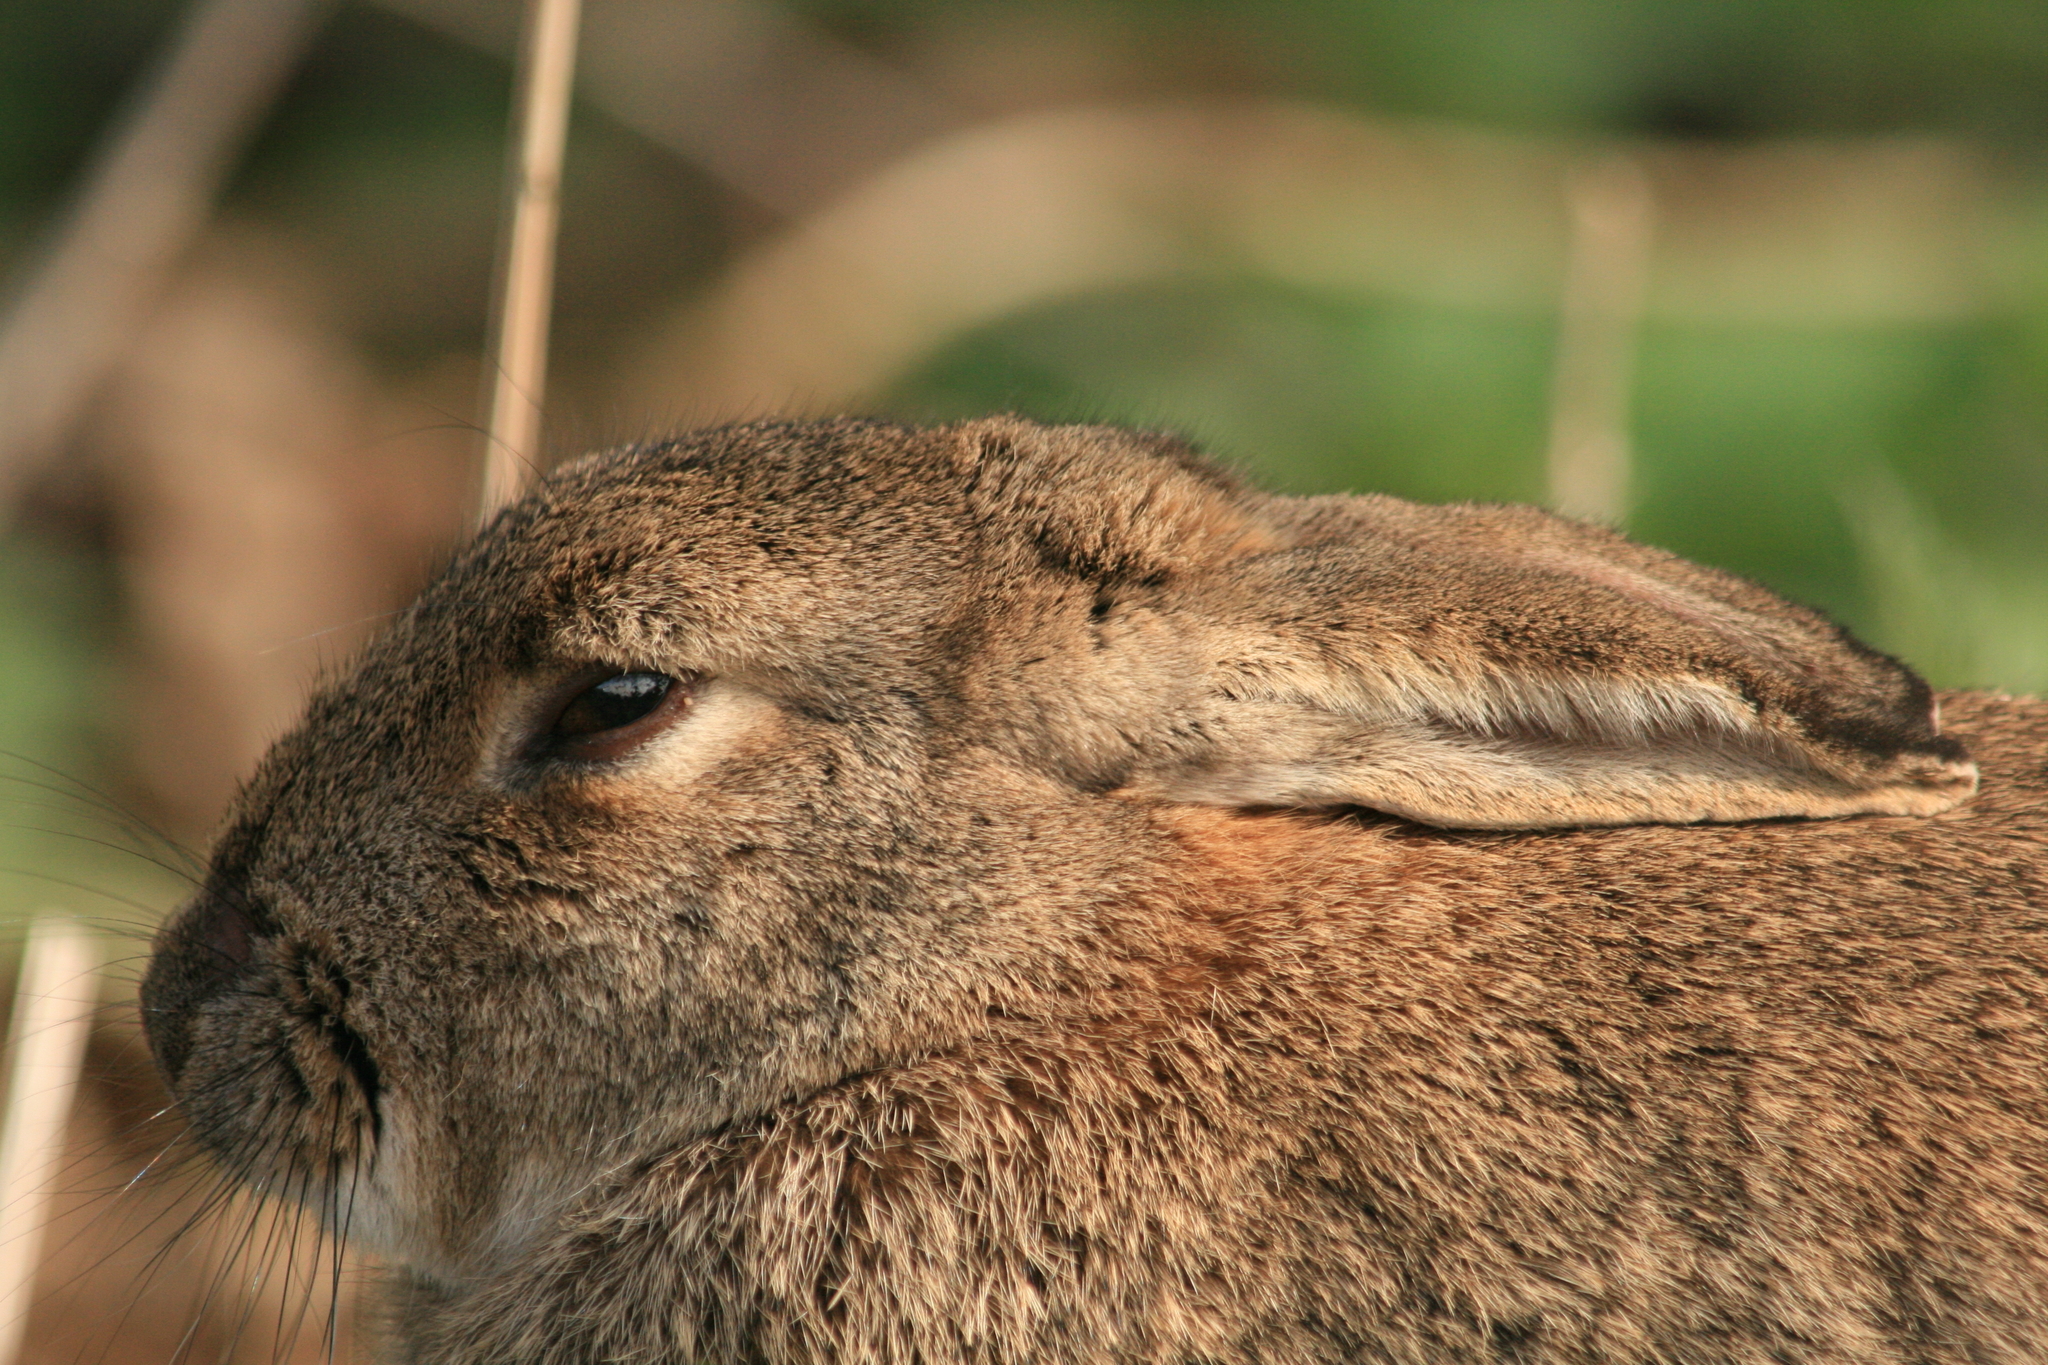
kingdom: Animalia
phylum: Chordata
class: Mammalia
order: Lagomorpha
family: Leporidae
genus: Oryctolagus
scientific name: Oryctolagus cuniculus
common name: European rabbit
